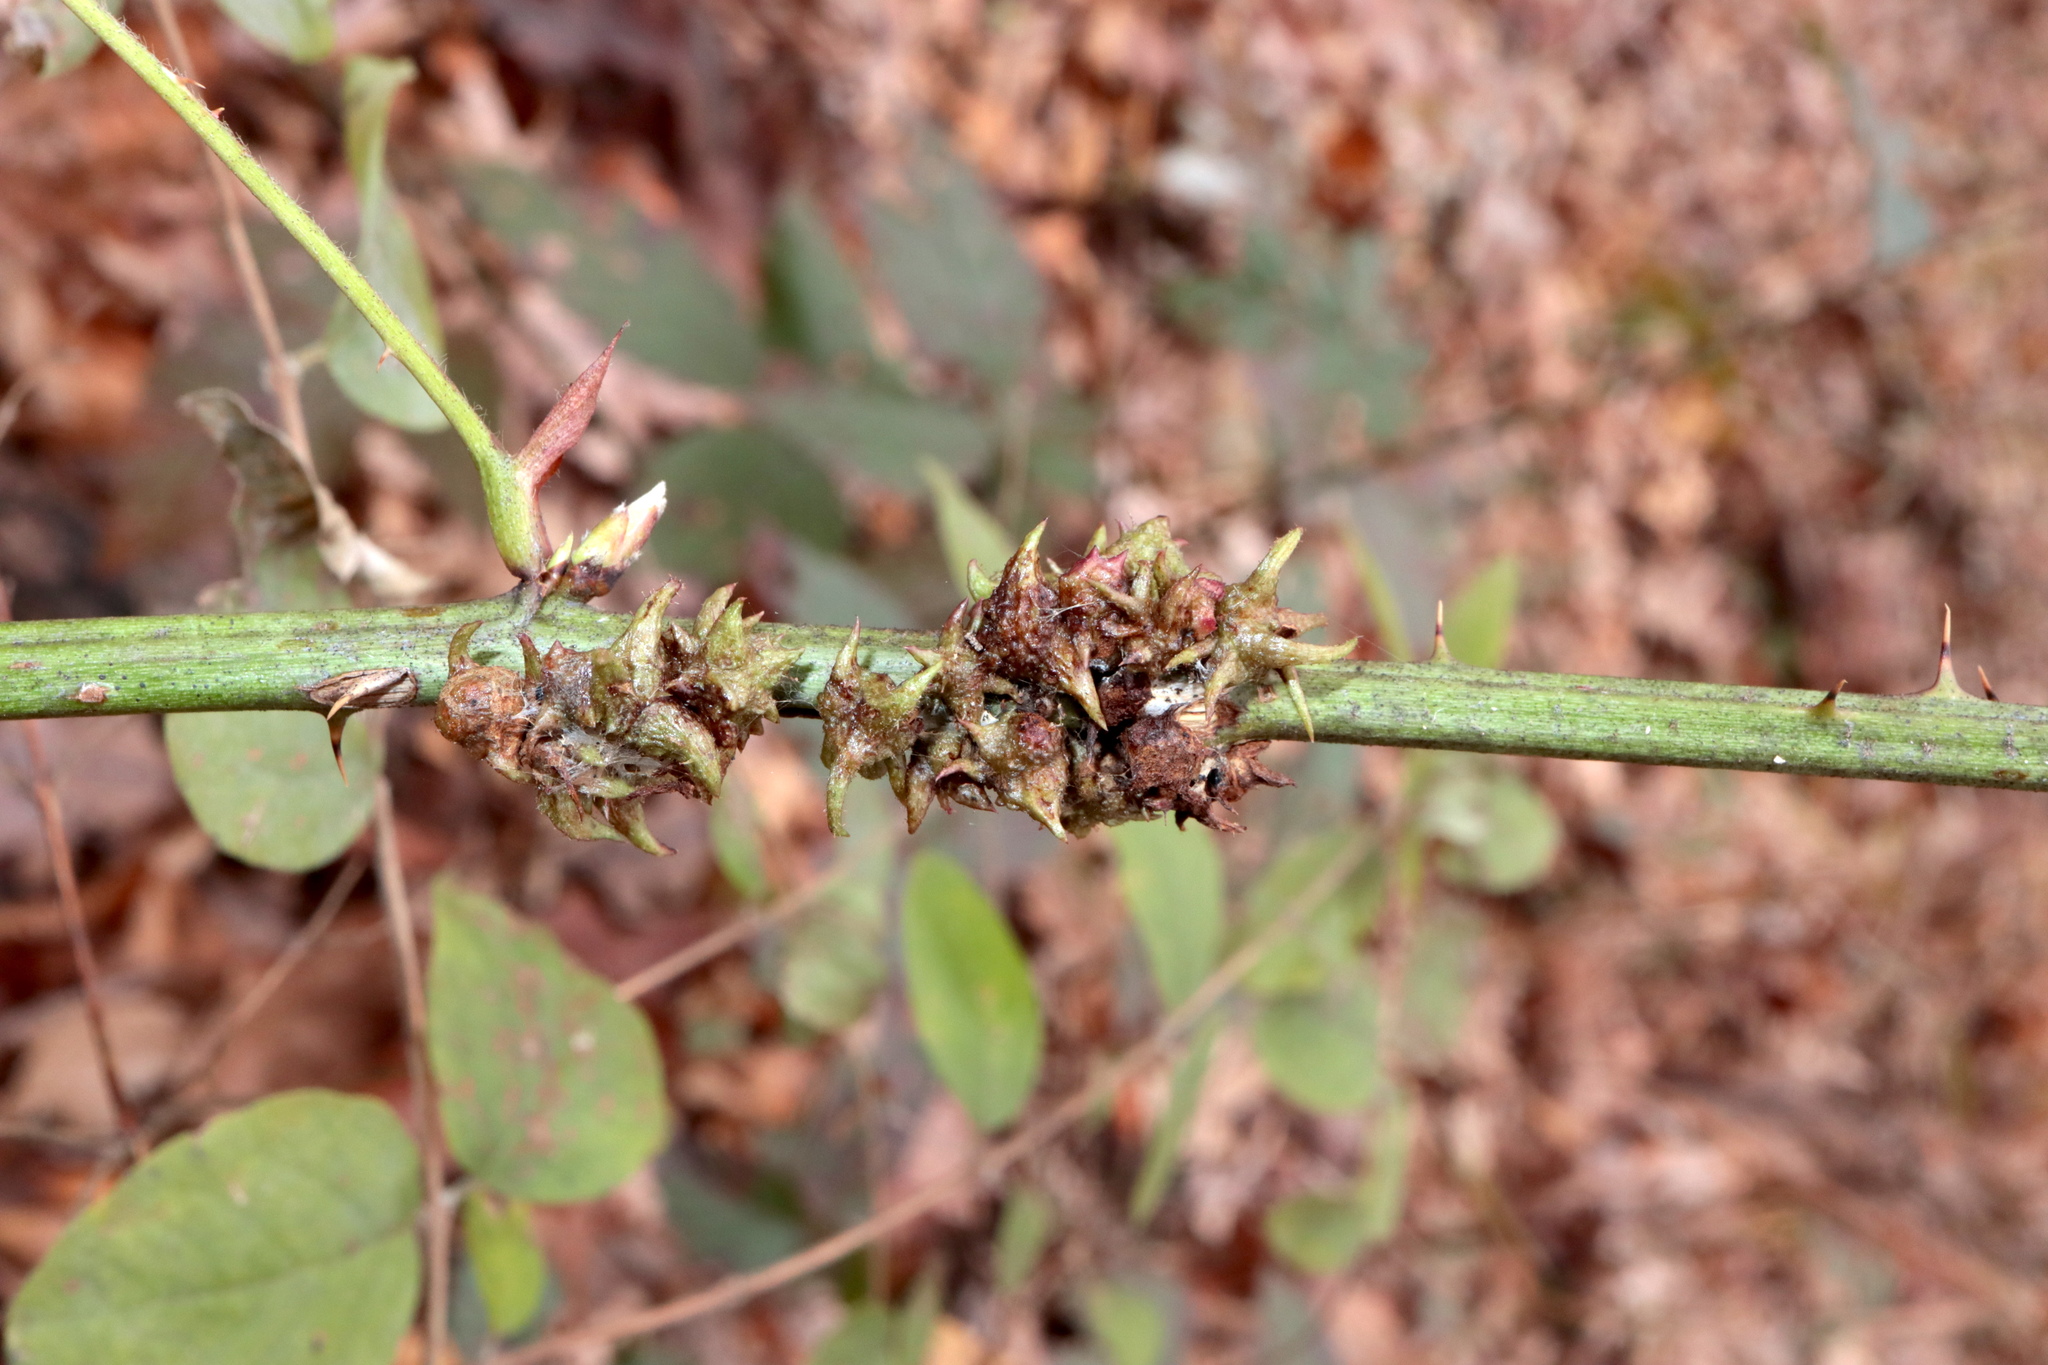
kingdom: Animalia
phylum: Arthropoda
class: Insecta
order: Hymenoptera
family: Cynipidae
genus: Diastrophus
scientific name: Diastrophus
